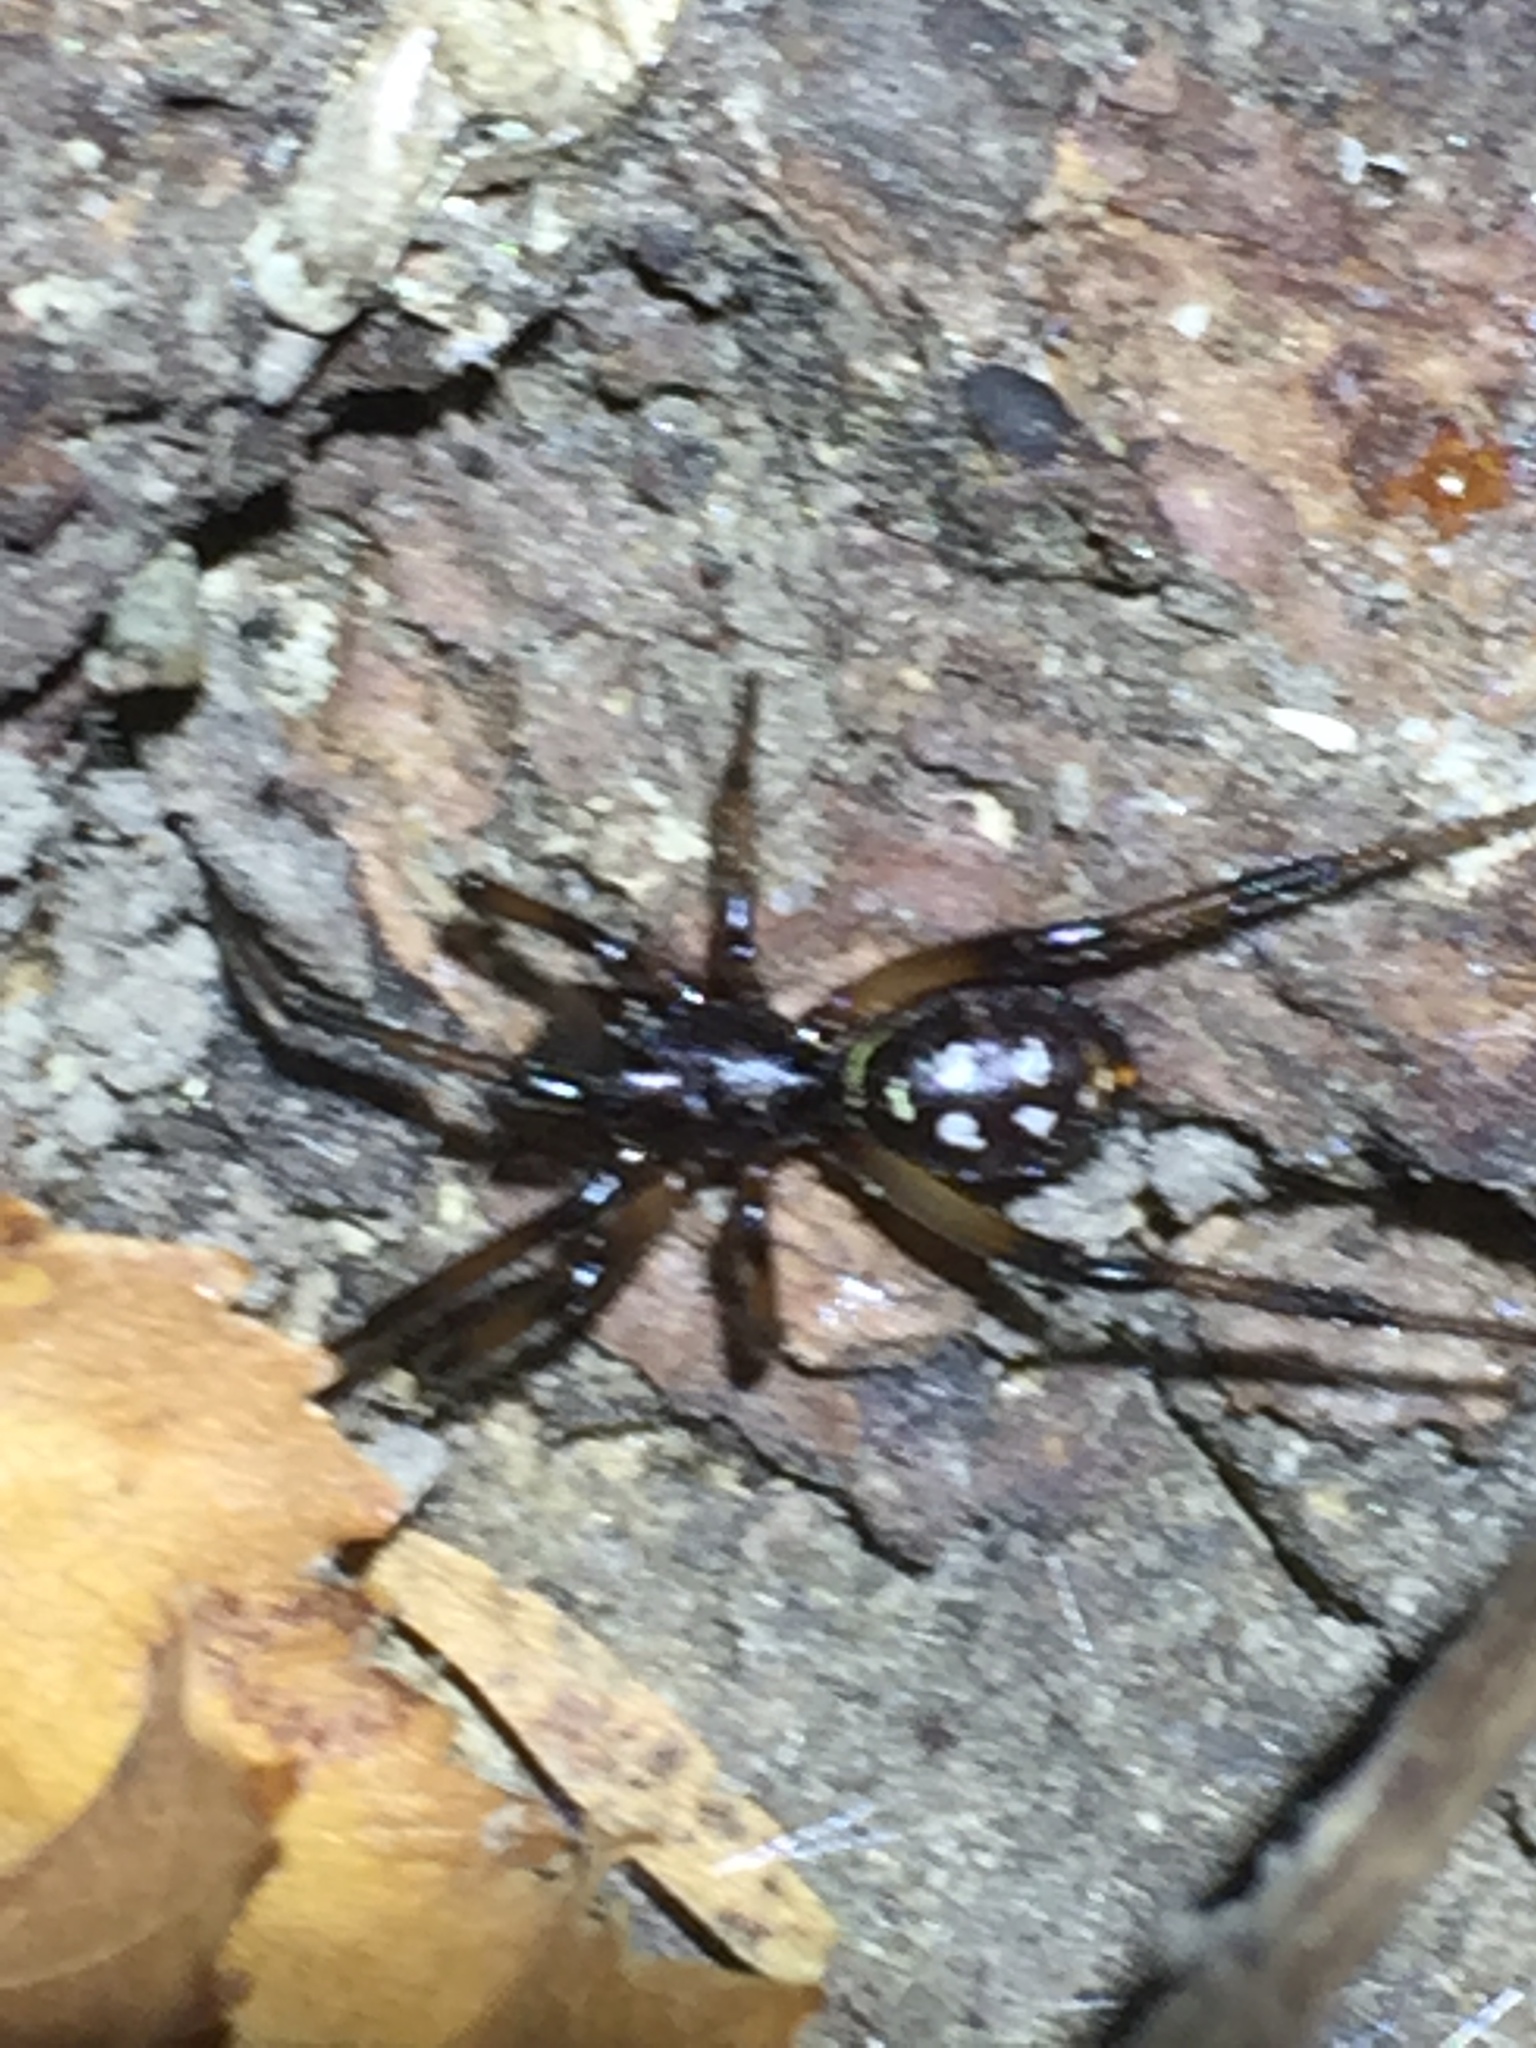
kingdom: Animalia
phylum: Arthropoda
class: Arachnida
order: Araneae
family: Theridiidae
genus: Steatoda
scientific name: Steatoda capensis
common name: Cobweb weaver
